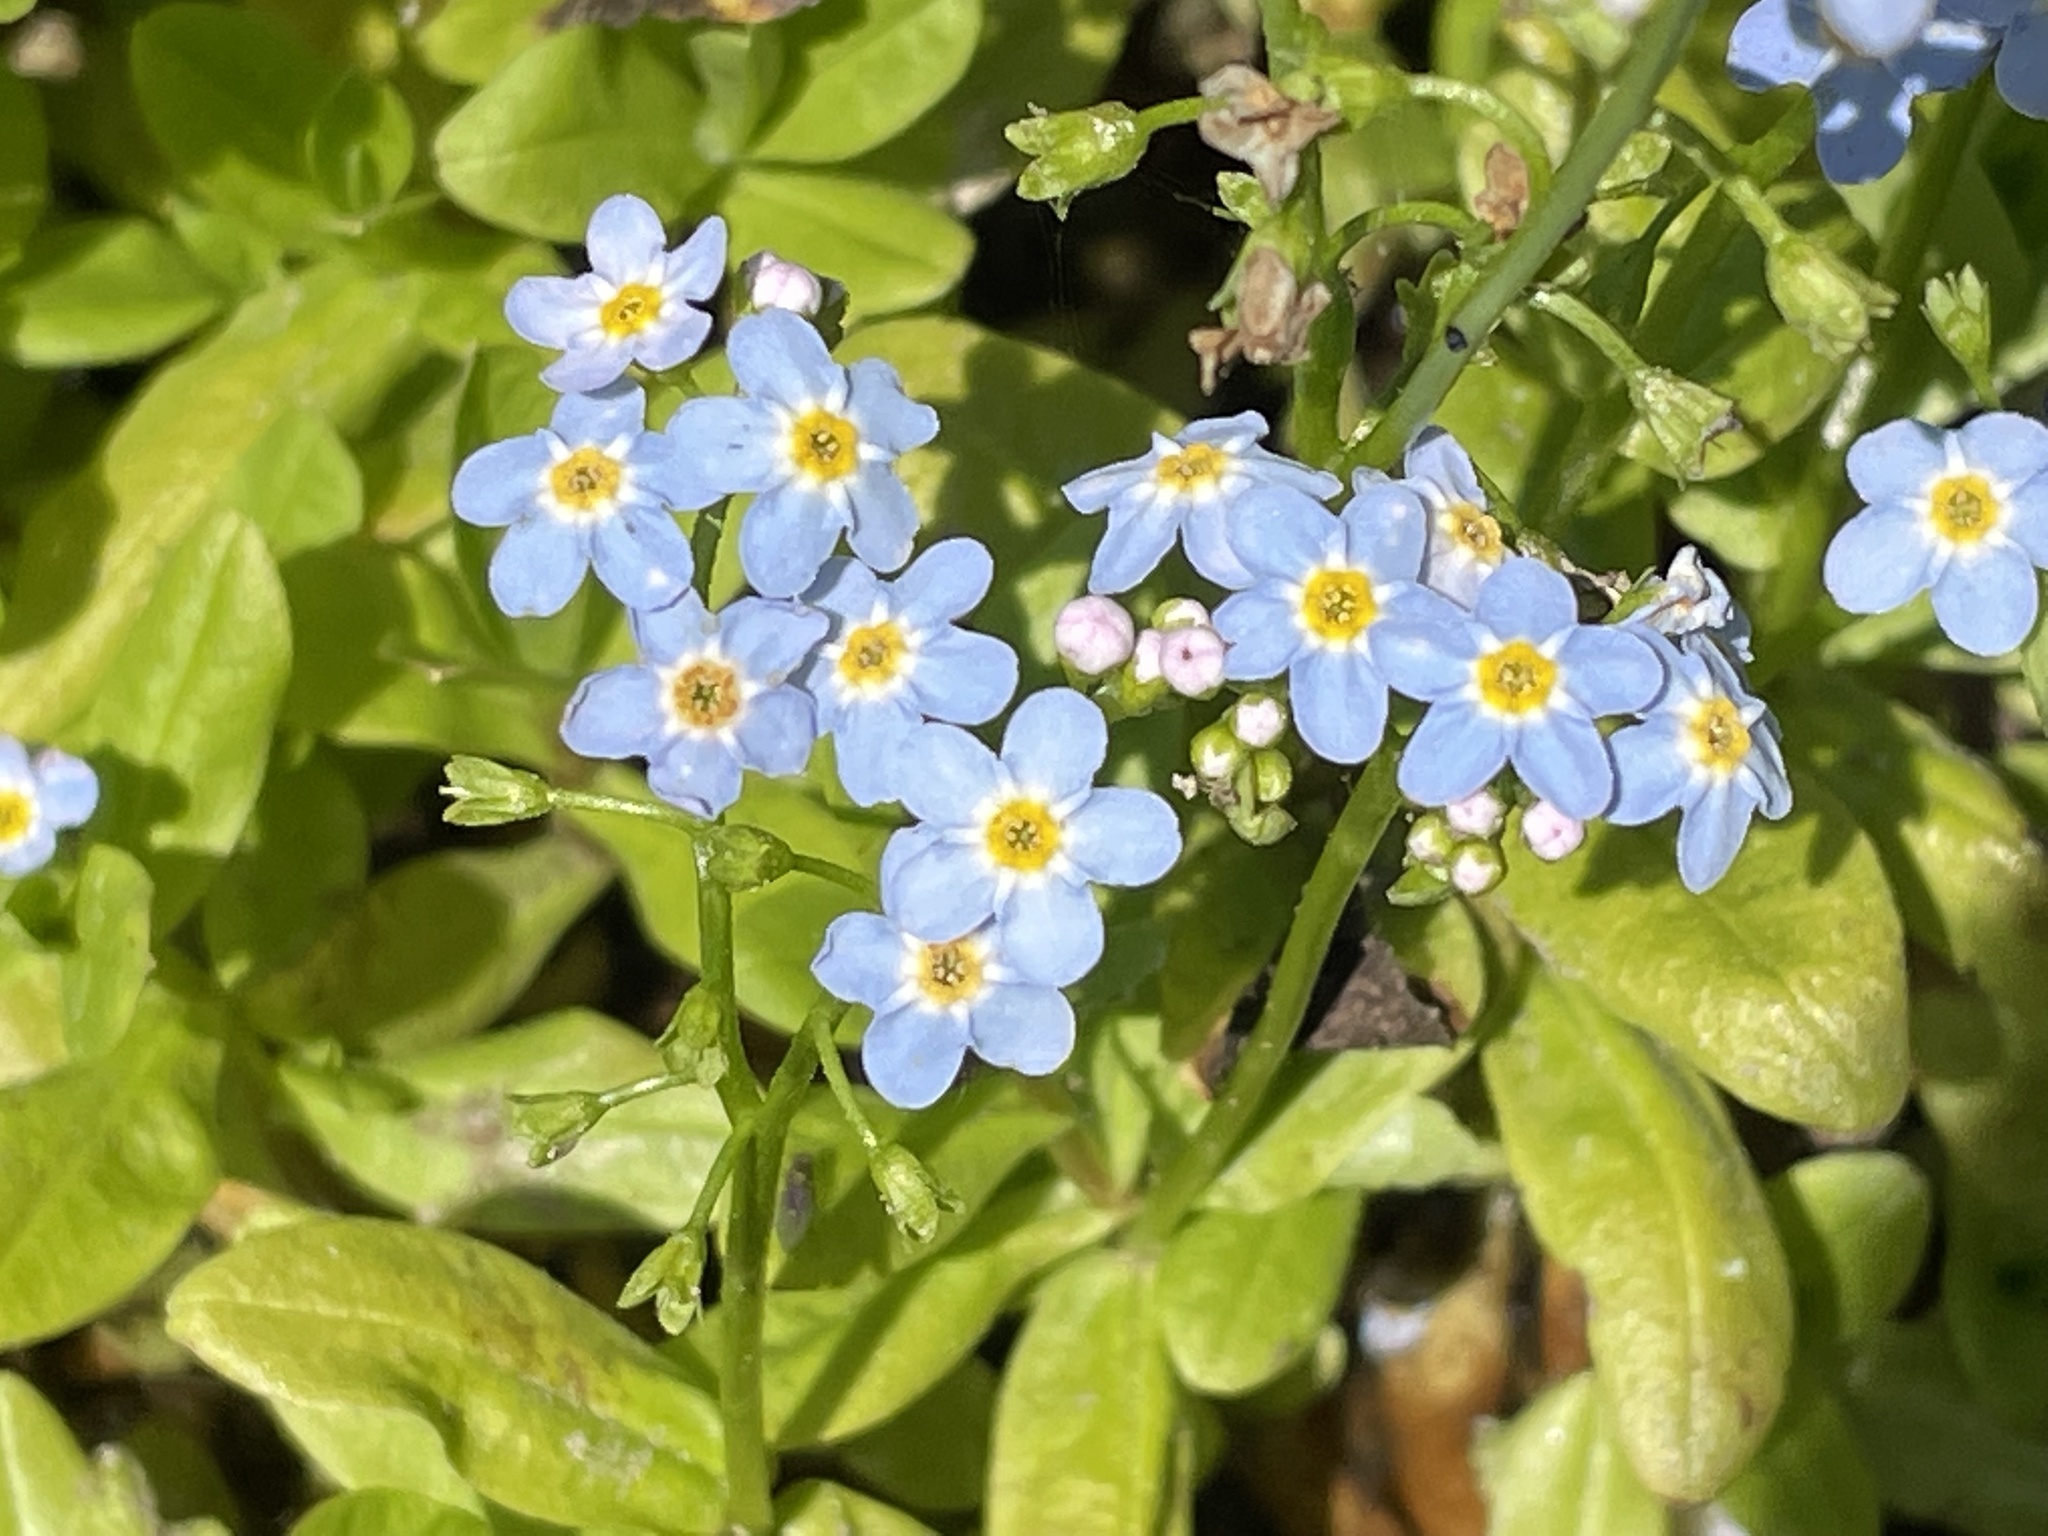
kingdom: Plantae
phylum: Tracheophyta
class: Magnoliopsida
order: Boraginales
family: Boraginaceae
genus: Myosotis
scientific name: Myosotis scorpioides
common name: Water forget-me-not
